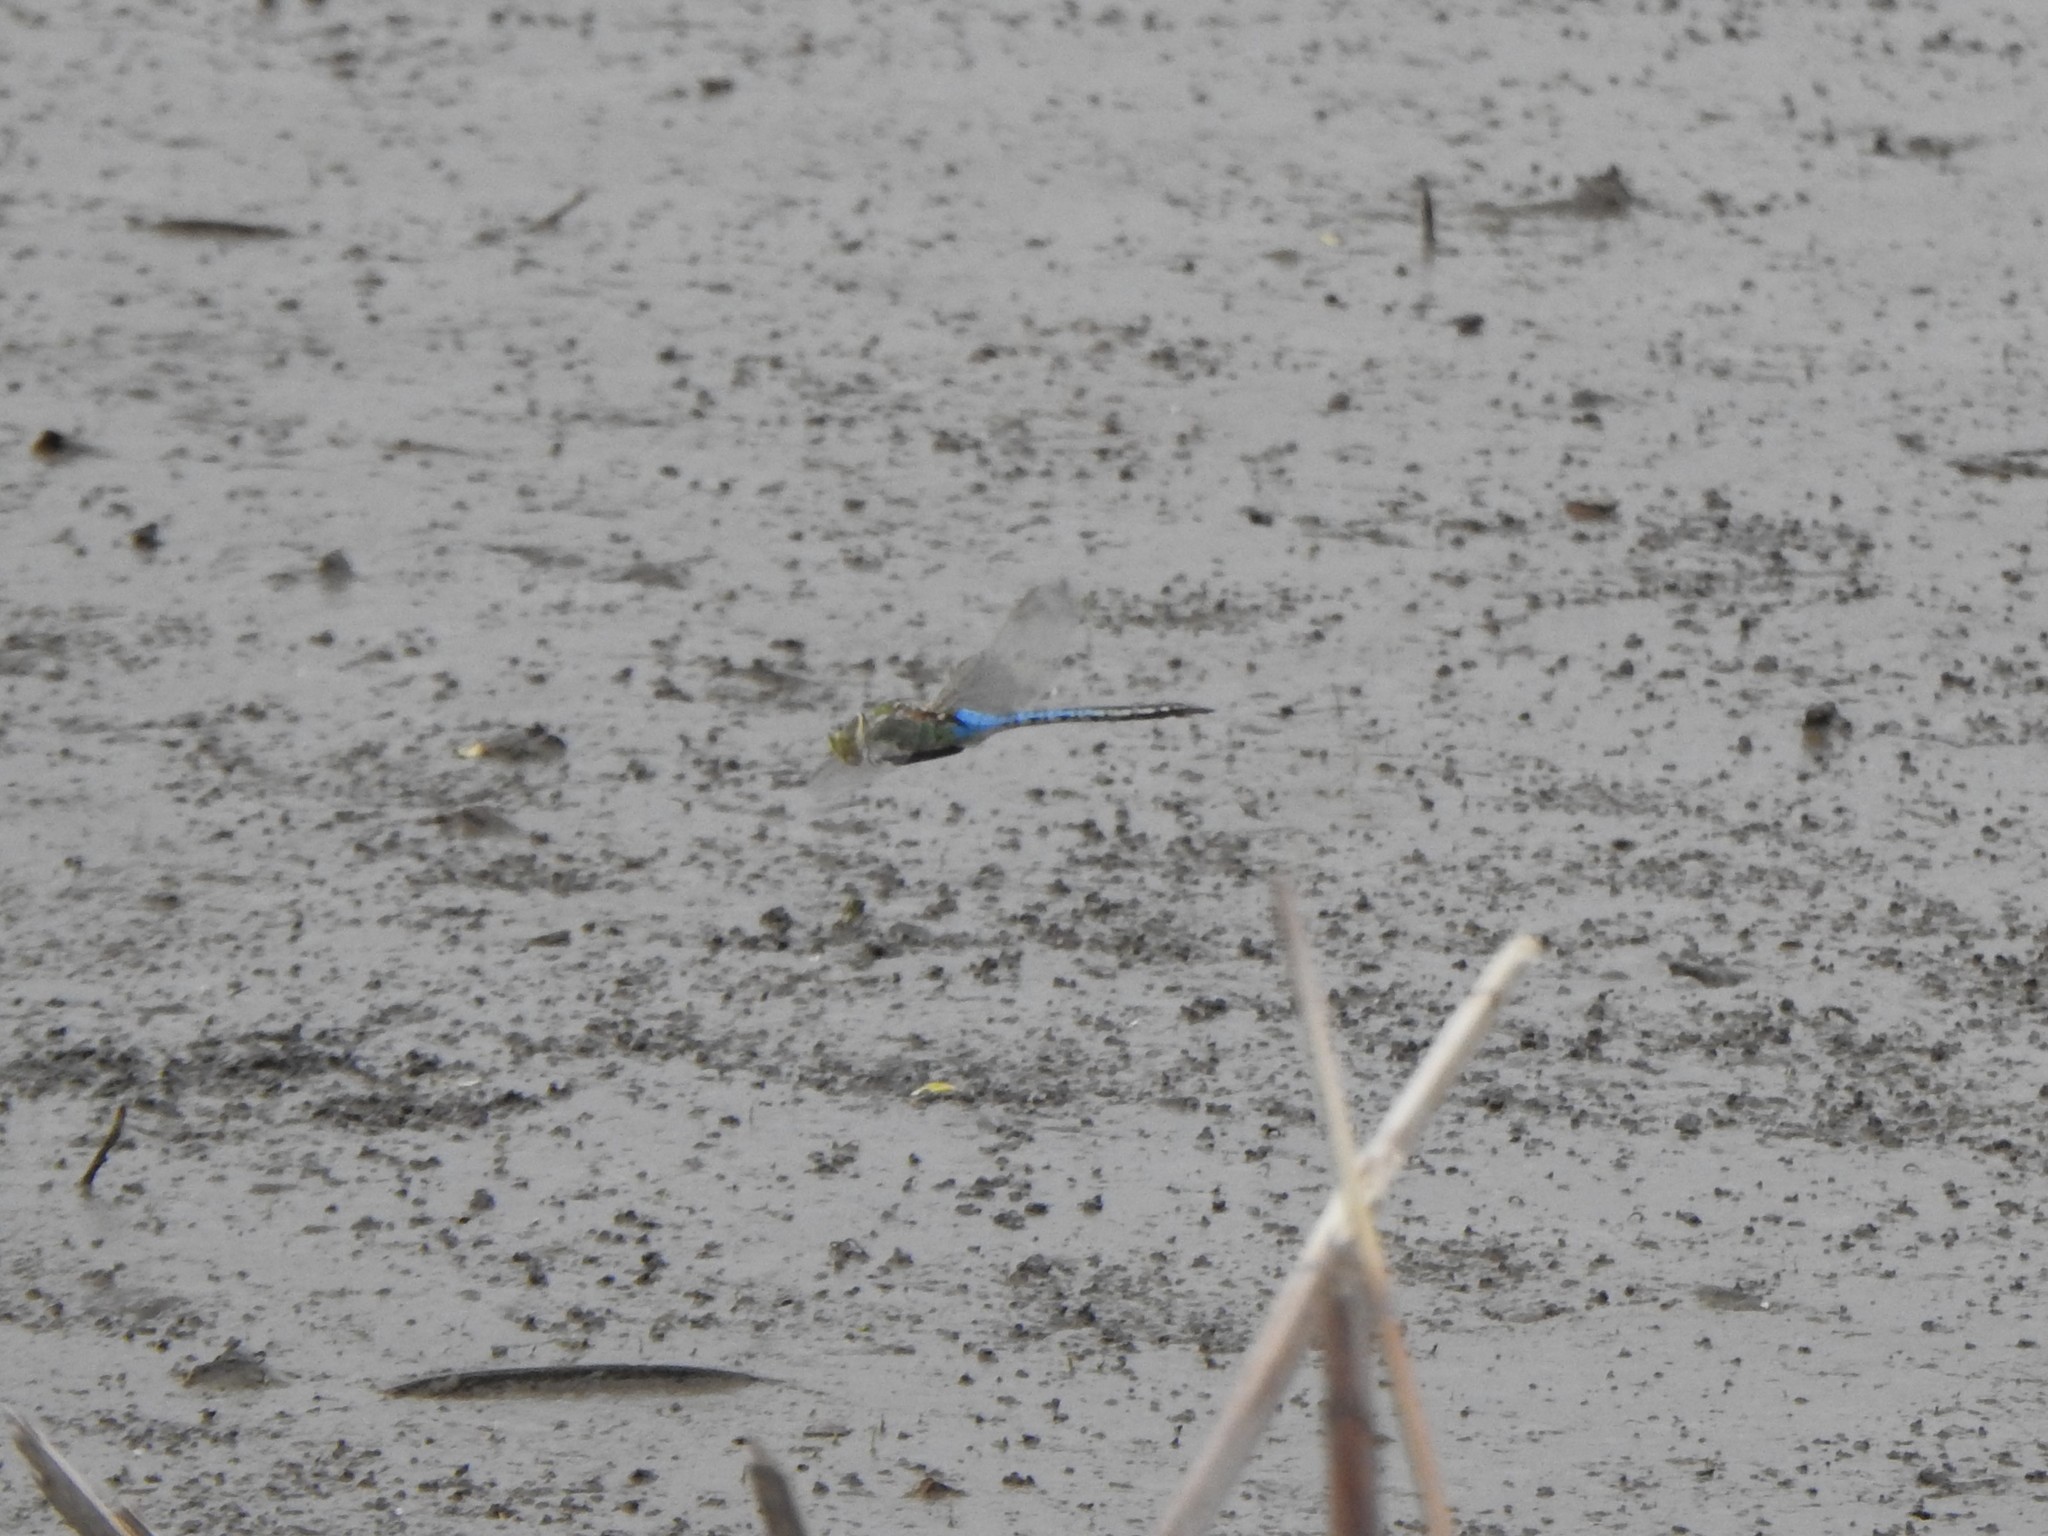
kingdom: Animalia
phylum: Arthropoda
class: Insecta
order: Odonata
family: Aeshnidae
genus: Anax
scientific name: Anax junius
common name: Common green darner
